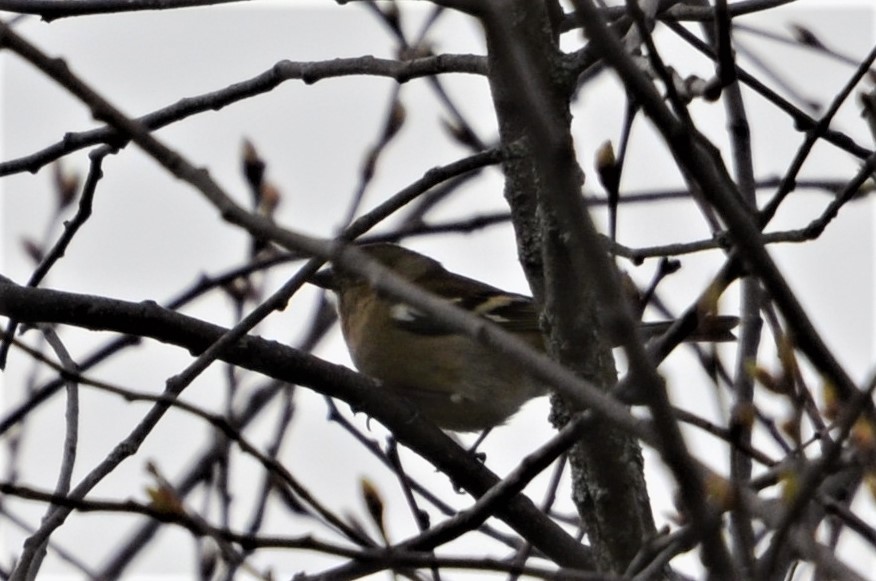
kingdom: Animalia
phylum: Chordata
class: Aves
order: Passeriformes
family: Fringillidae
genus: Fringilla
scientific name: Fringilla coelebs
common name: Common chaffinch
